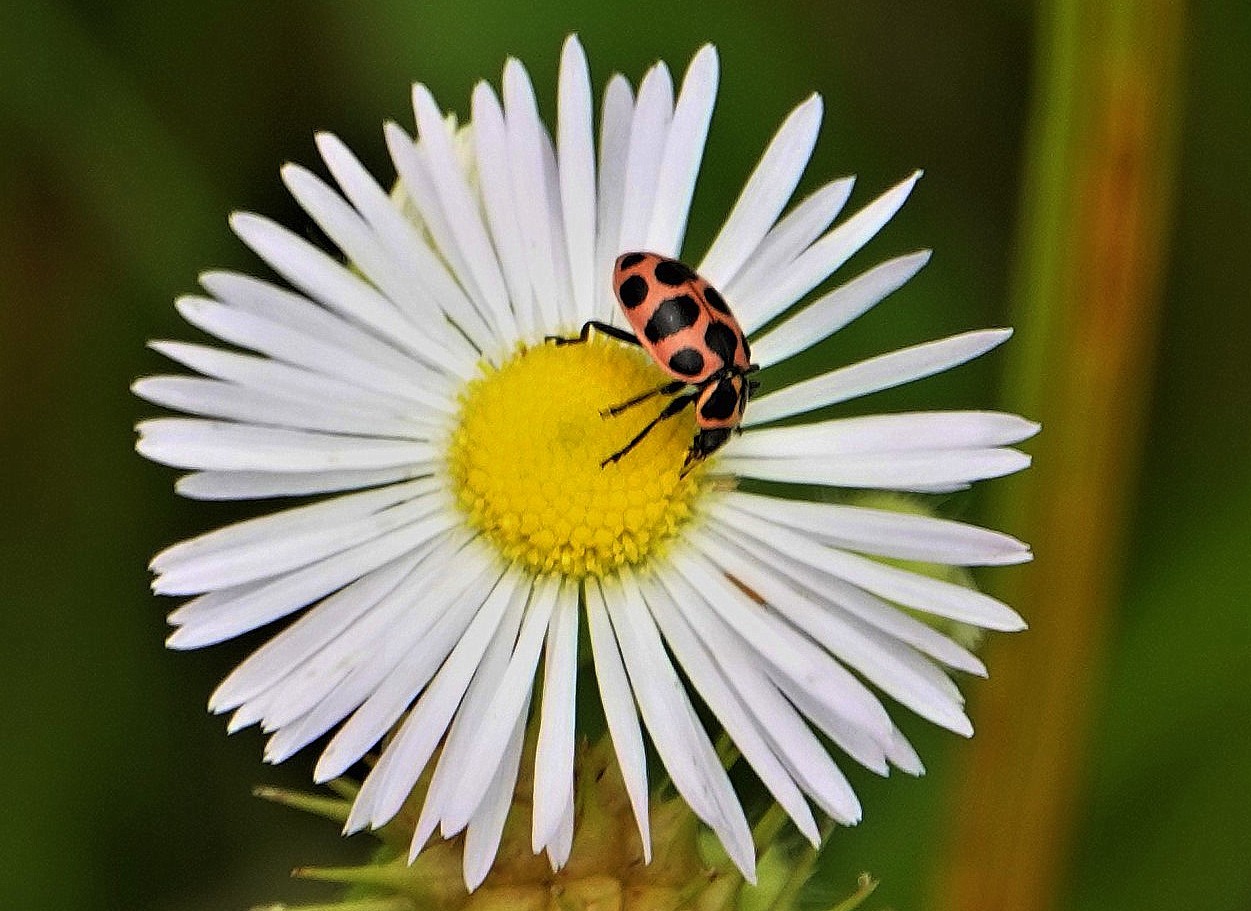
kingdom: Animalia
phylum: Arthropoda
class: Insecta
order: Coleoptera
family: Coccinellidae
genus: Coleomegilla
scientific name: Coleomegilla maculata
